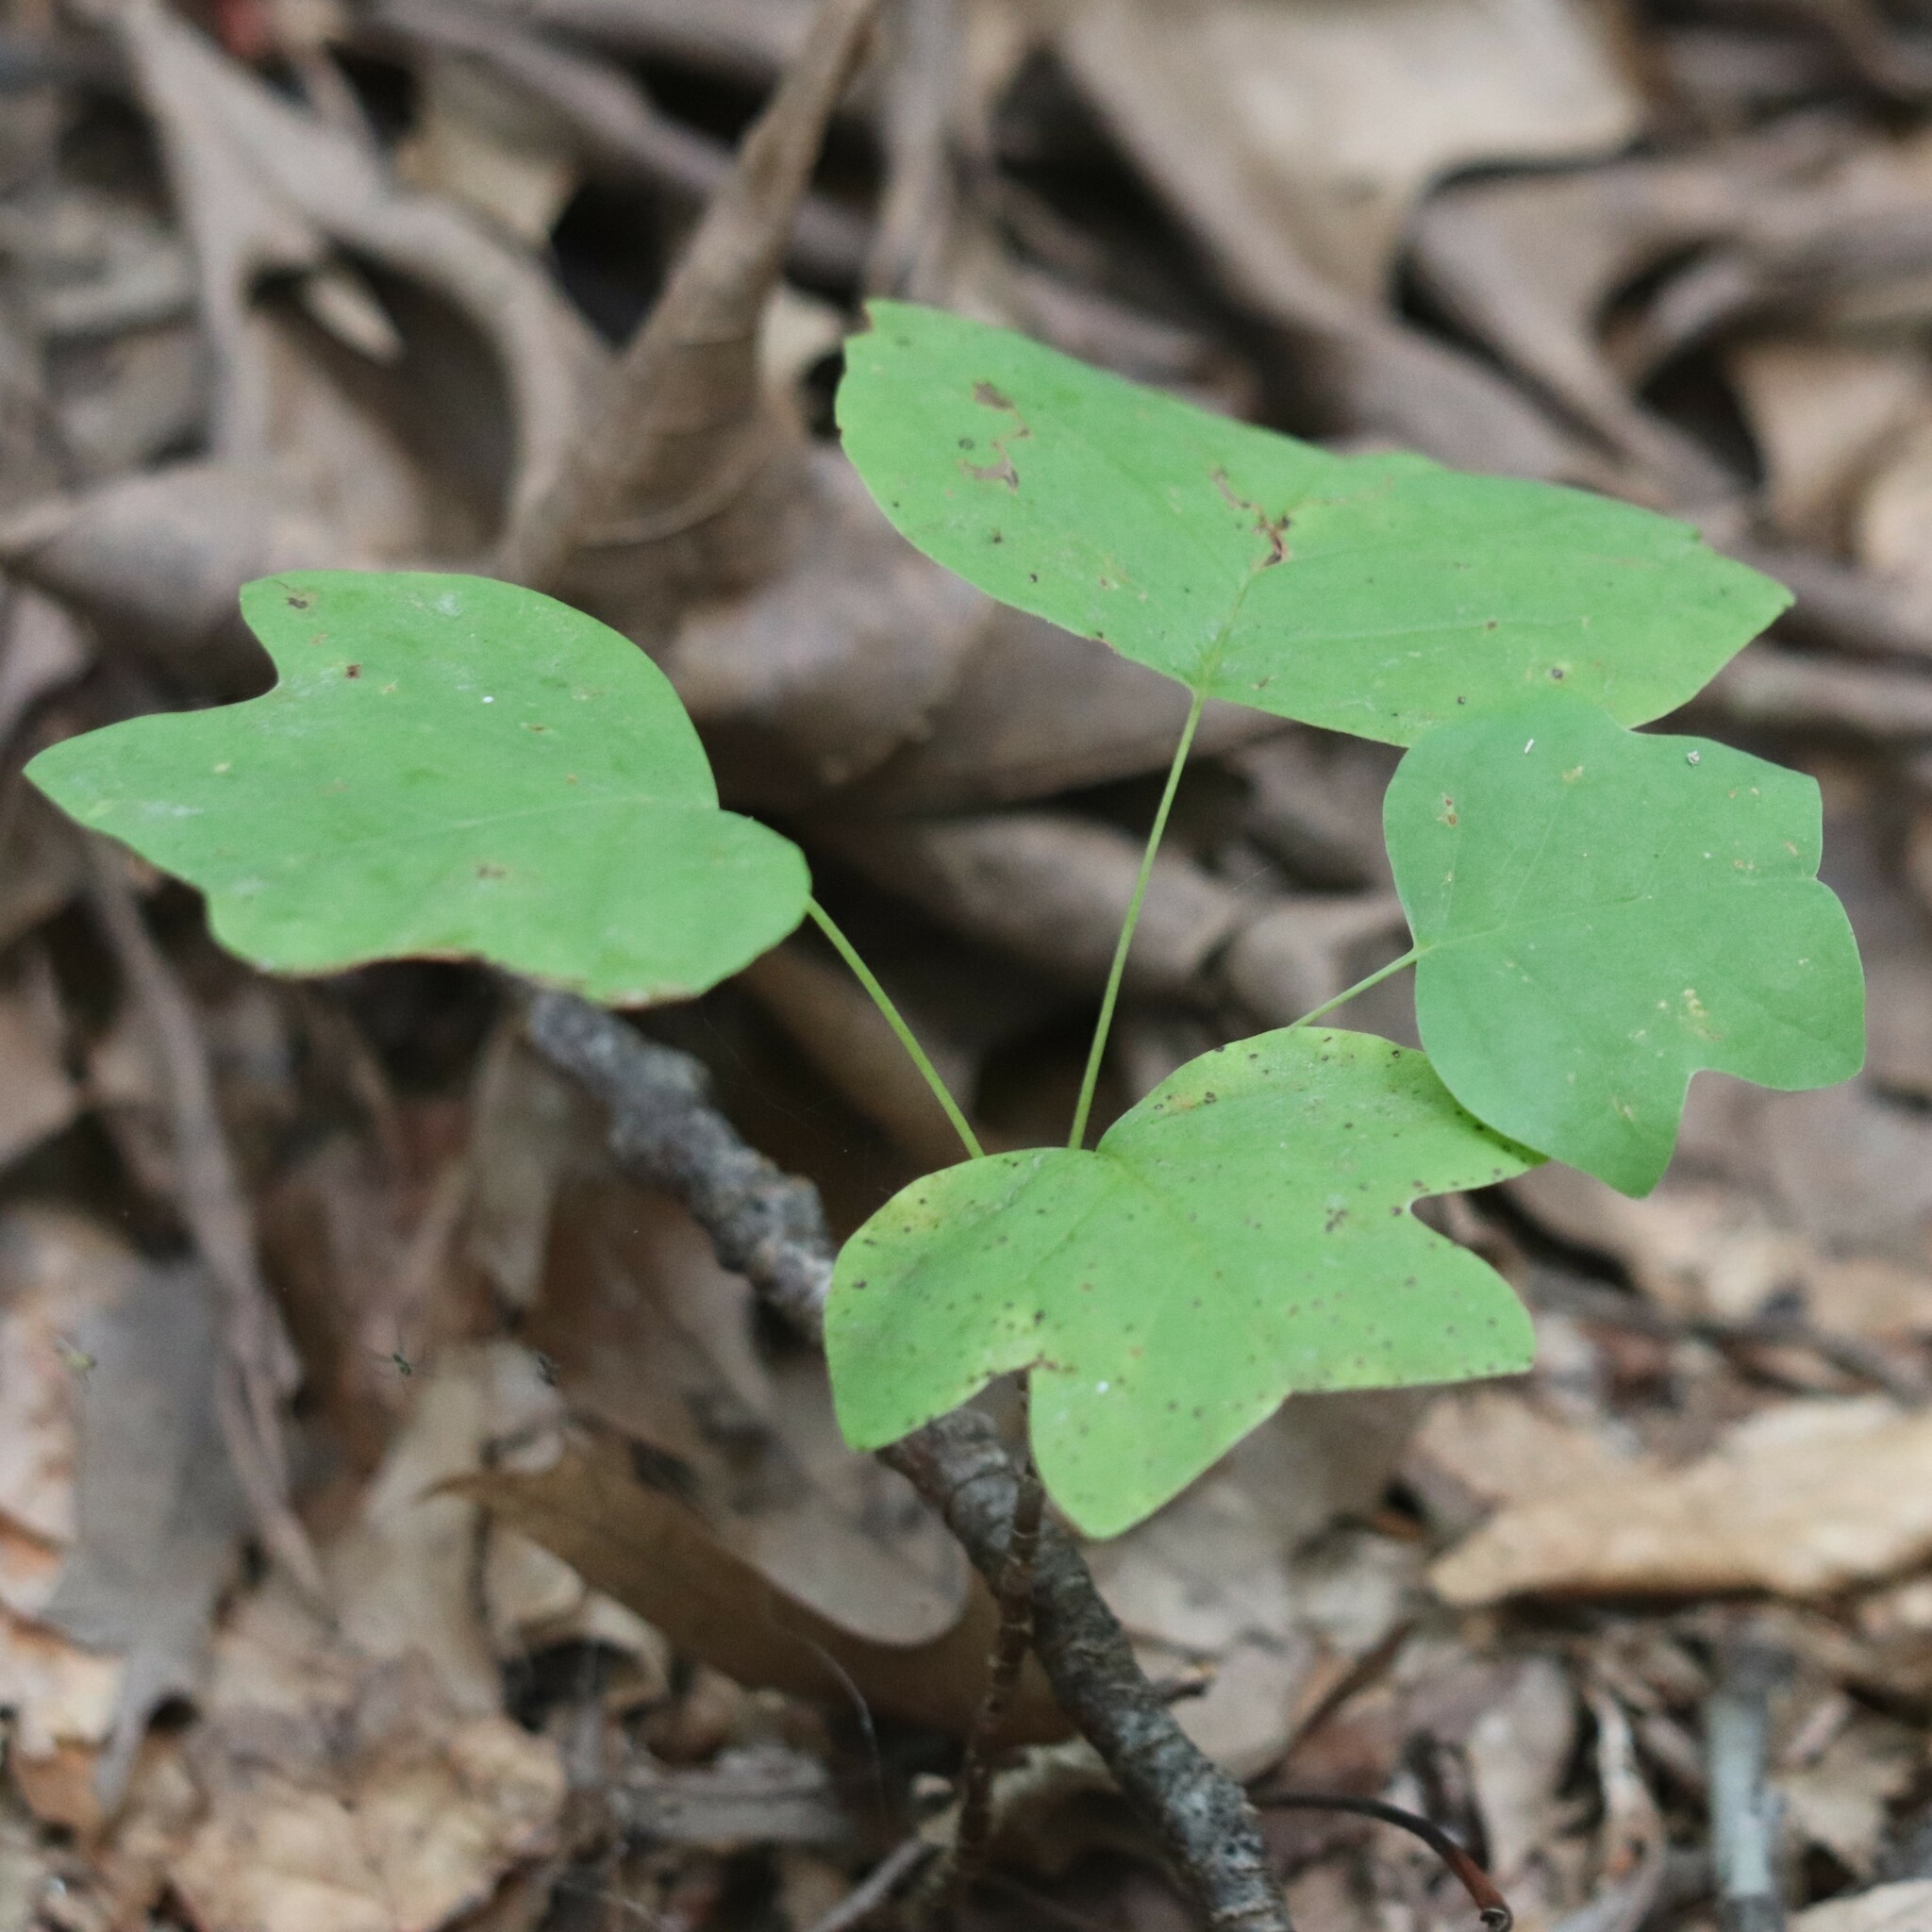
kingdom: Plantae
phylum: Tracheophyta
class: Magnoliopsida
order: Magnoliales
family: Magnoliaceae
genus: Liriodendron
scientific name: Liriodendron tulipifera
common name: Tulip tree
